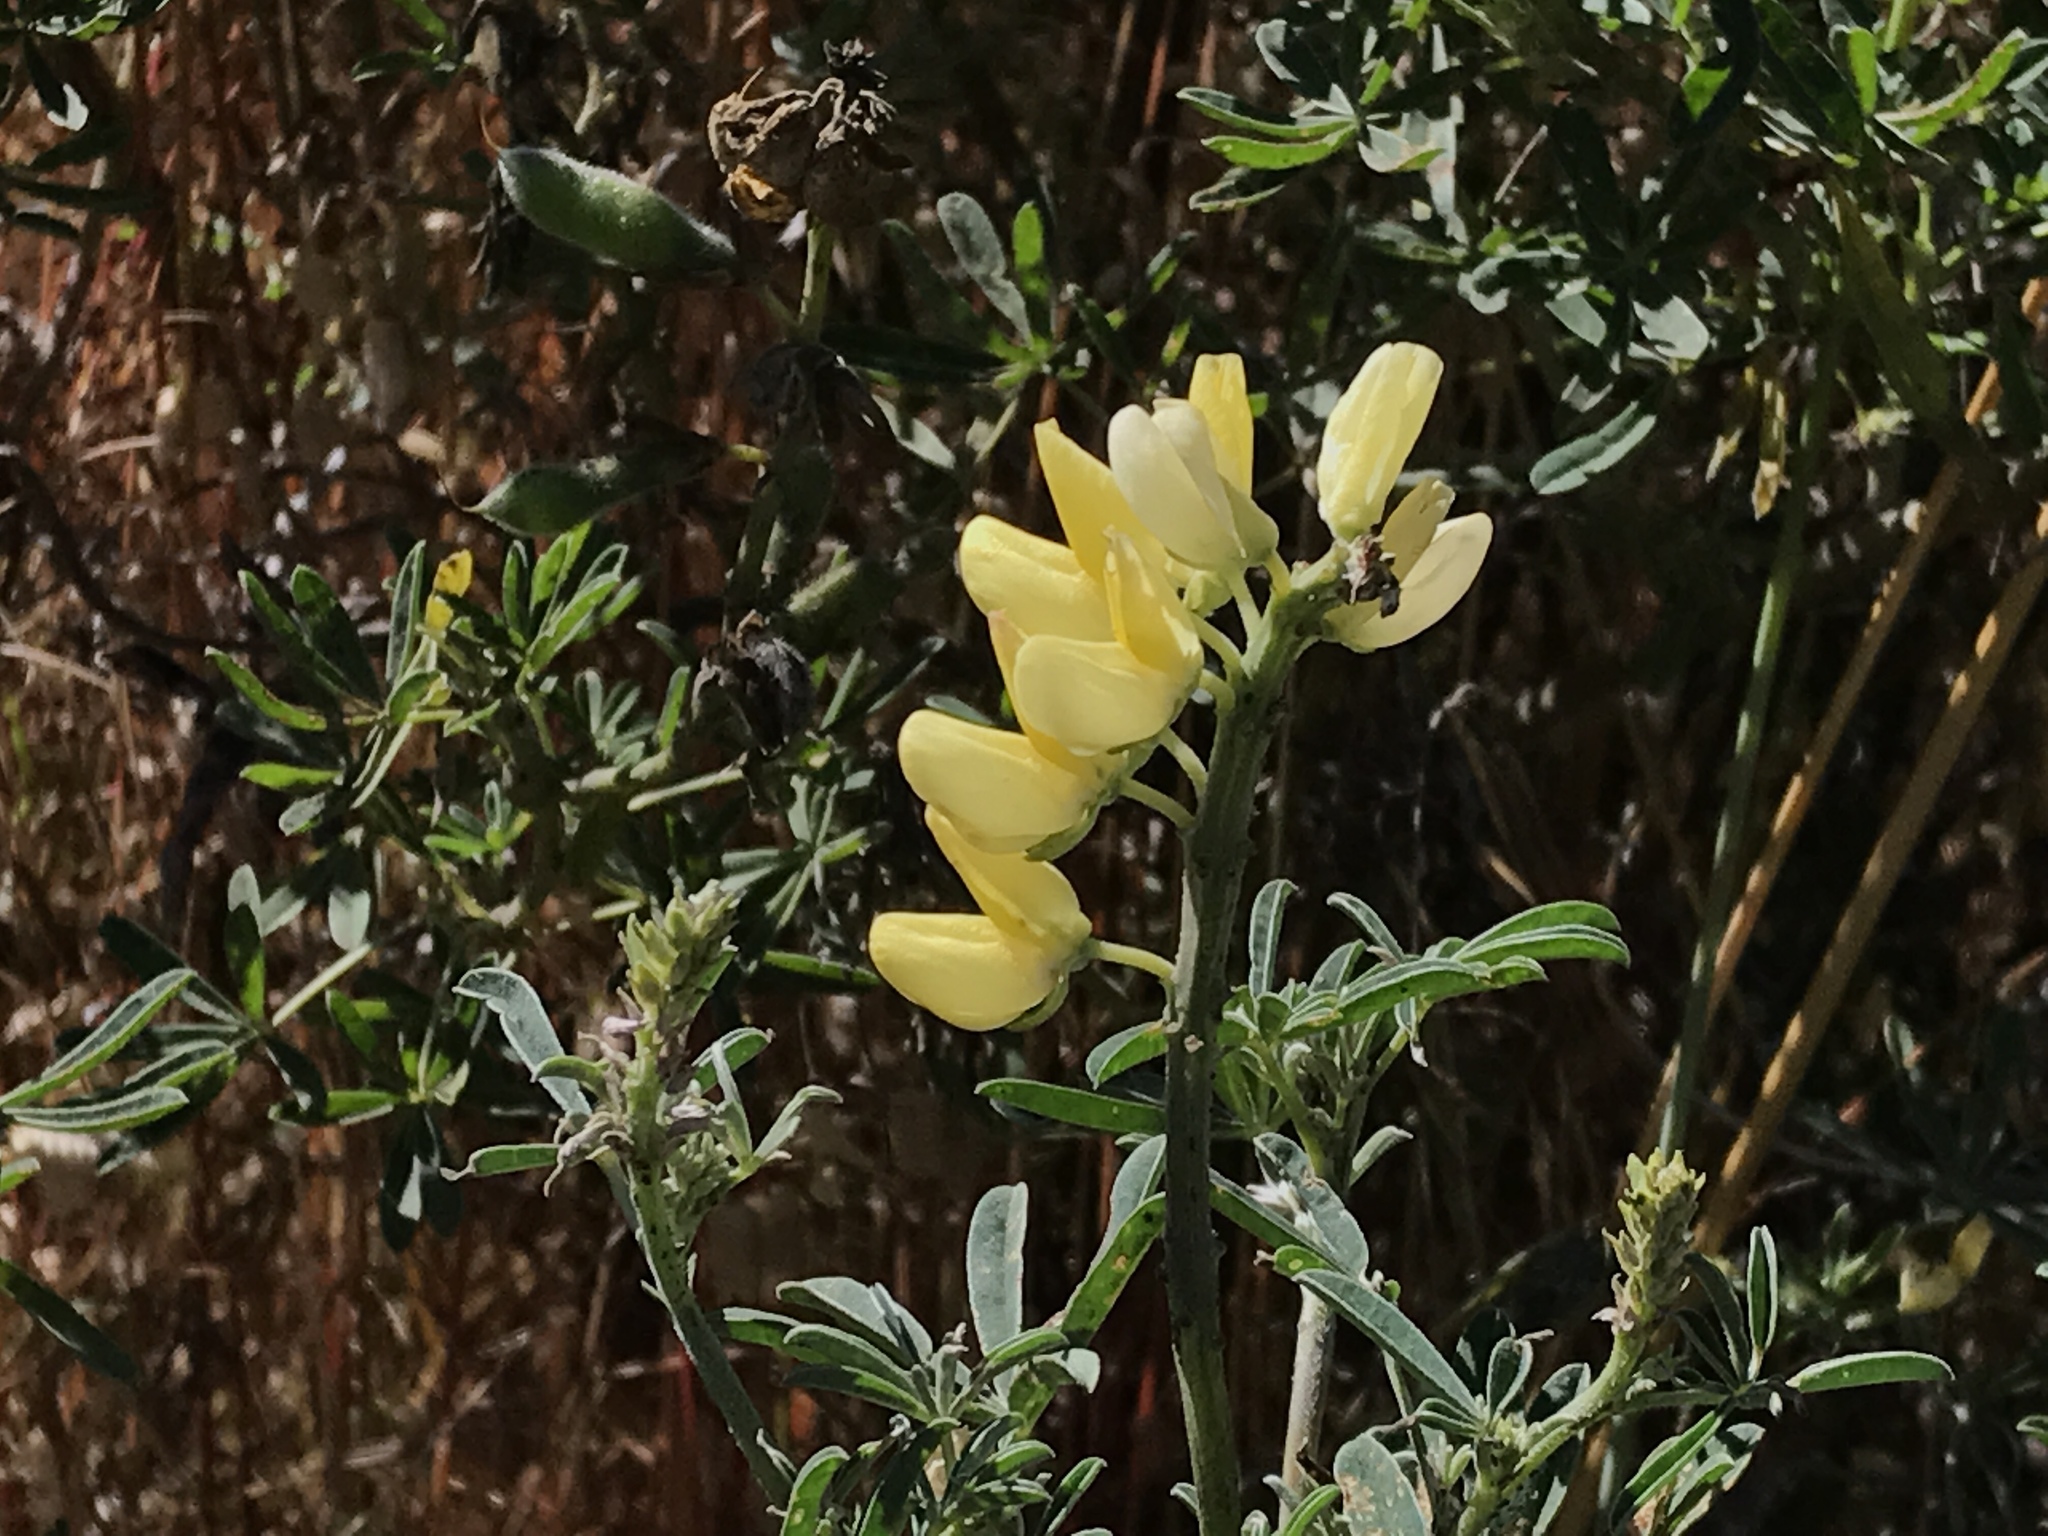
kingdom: Plantae
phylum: Tracheophyta
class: Magnoliopsida
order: Fabales
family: Fabaceae
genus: Lupinus
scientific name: Lupinus arboreus
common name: Yellow bush lupine
